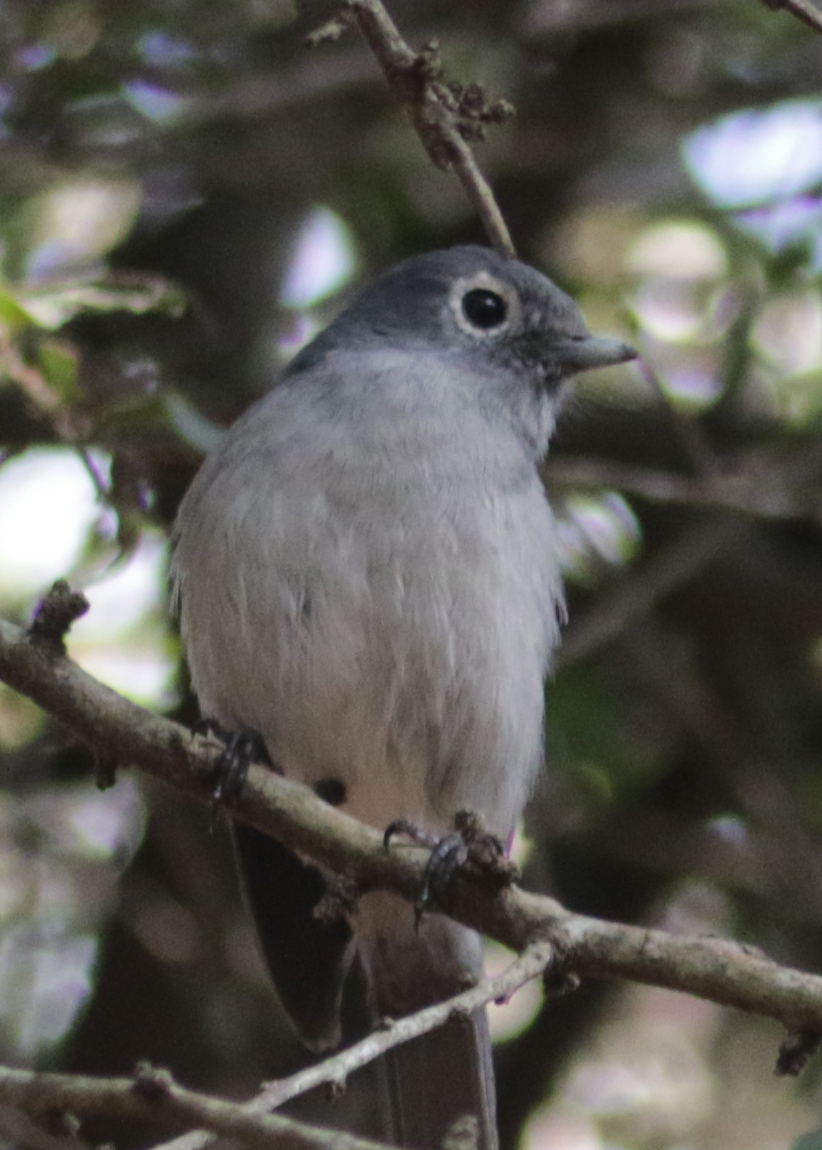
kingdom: Animalia
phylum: Chordata
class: Aves
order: Passeriformes
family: Muscicapidae
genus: Dioptrornis
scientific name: Dioptrornis fischeri
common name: White-eyed slaty flycatcher
